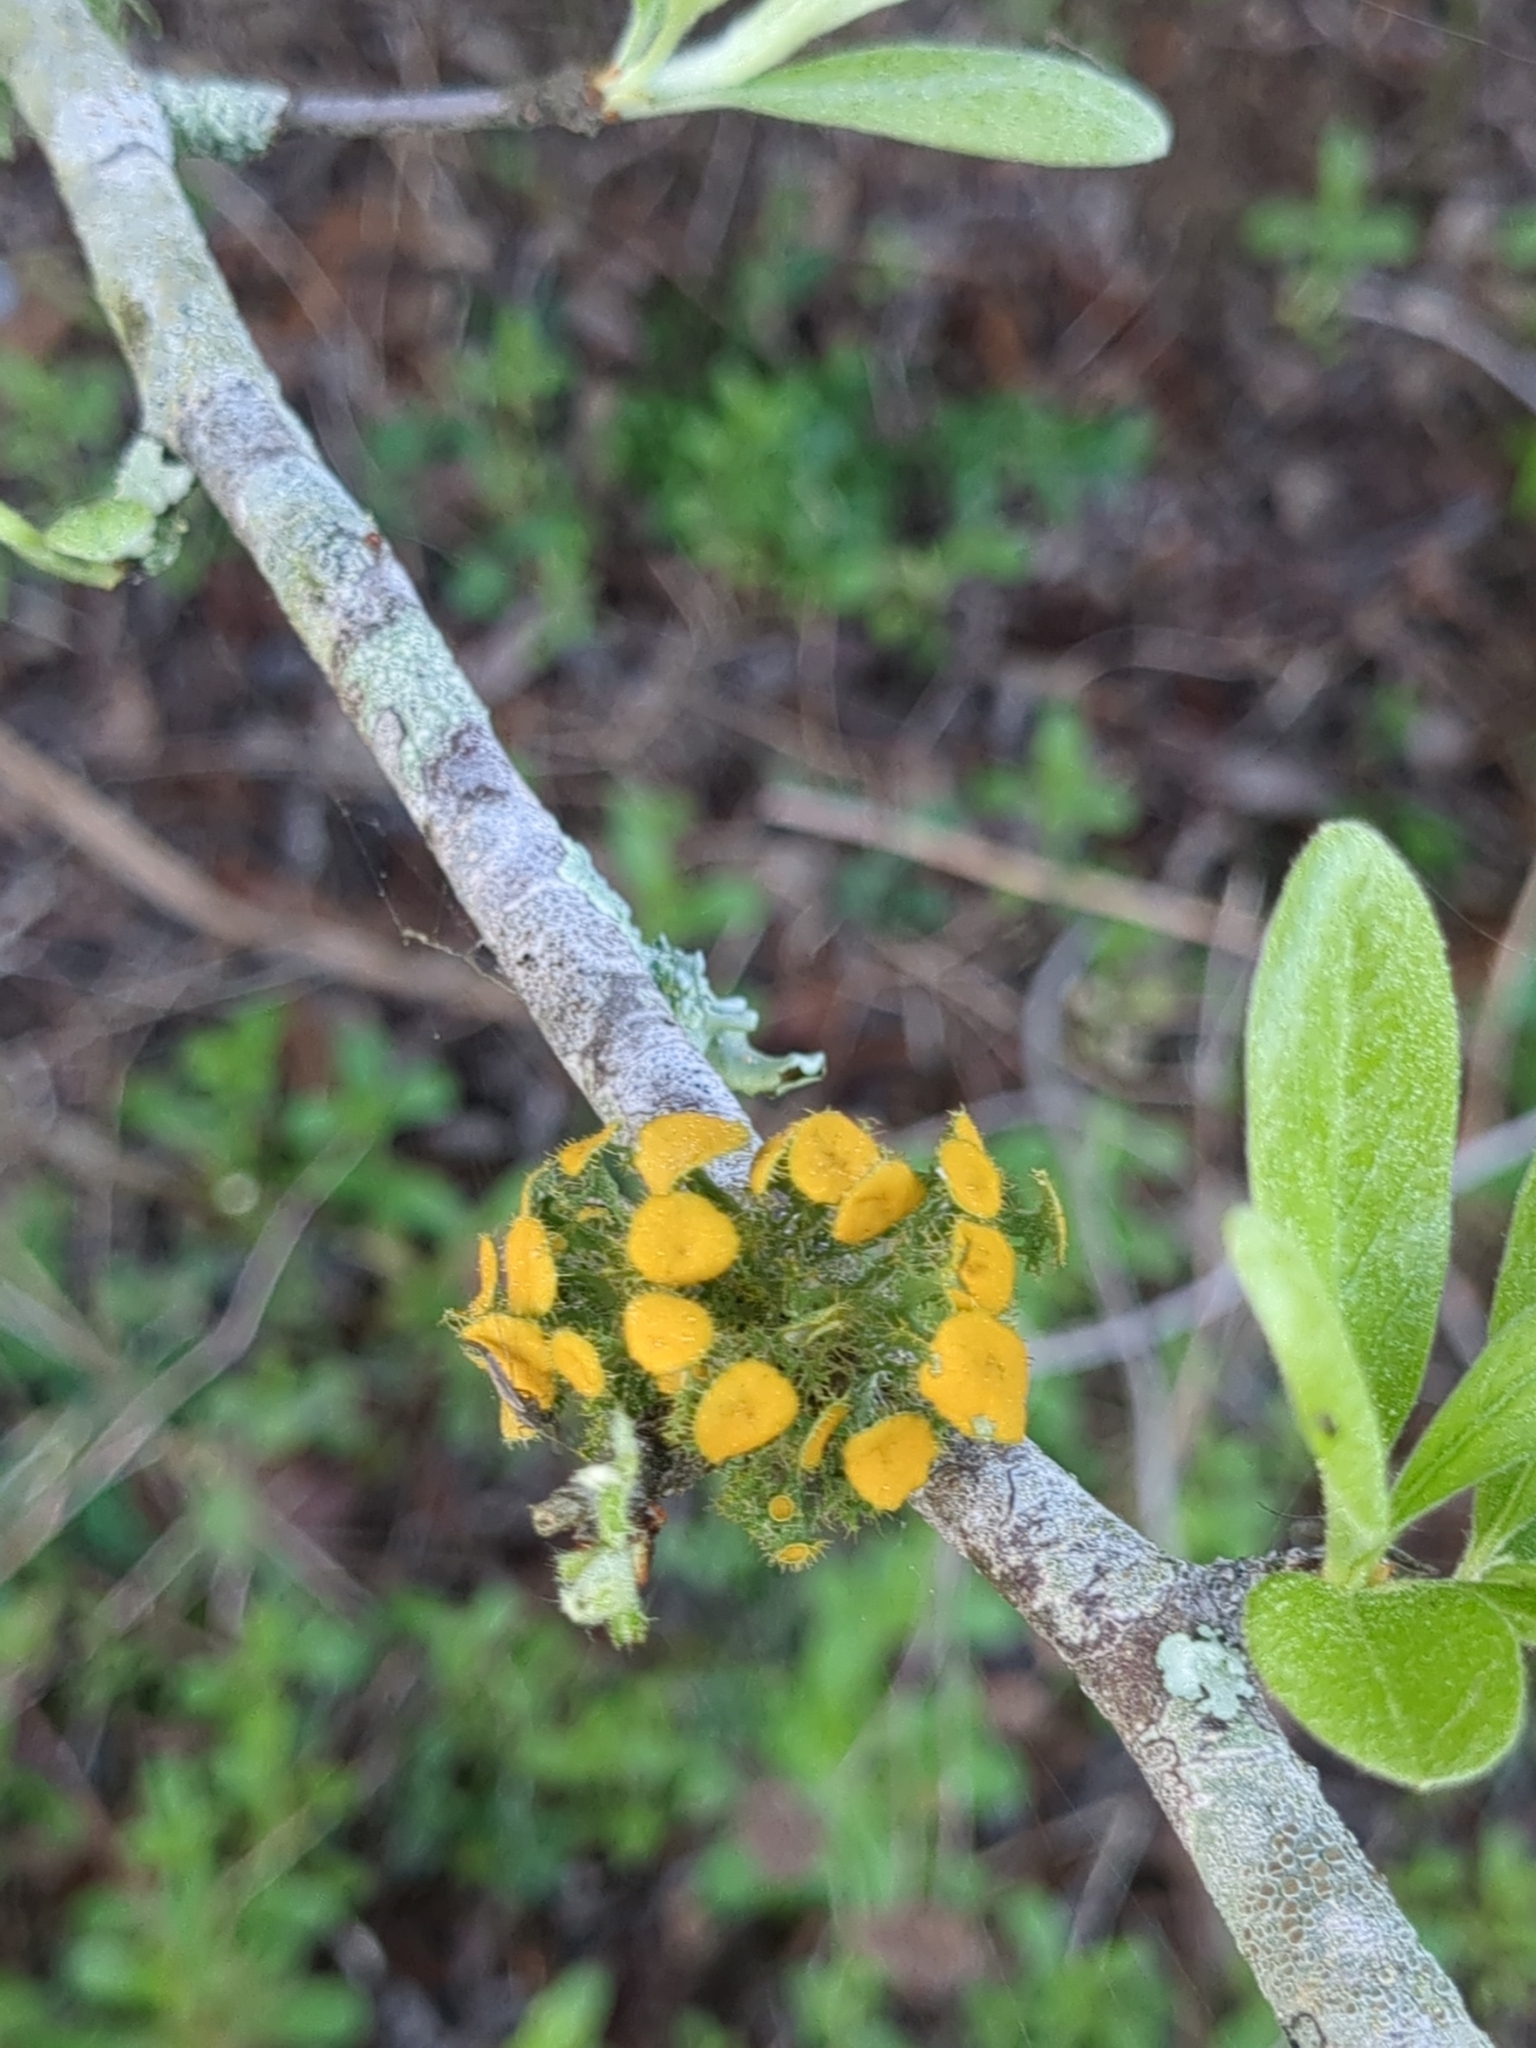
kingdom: Fungi
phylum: Ascomycota
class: Lecanoromycetes
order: Teloschistales
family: Teloschistaceae
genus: Niorma
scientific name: Niorma chrysophthalma
